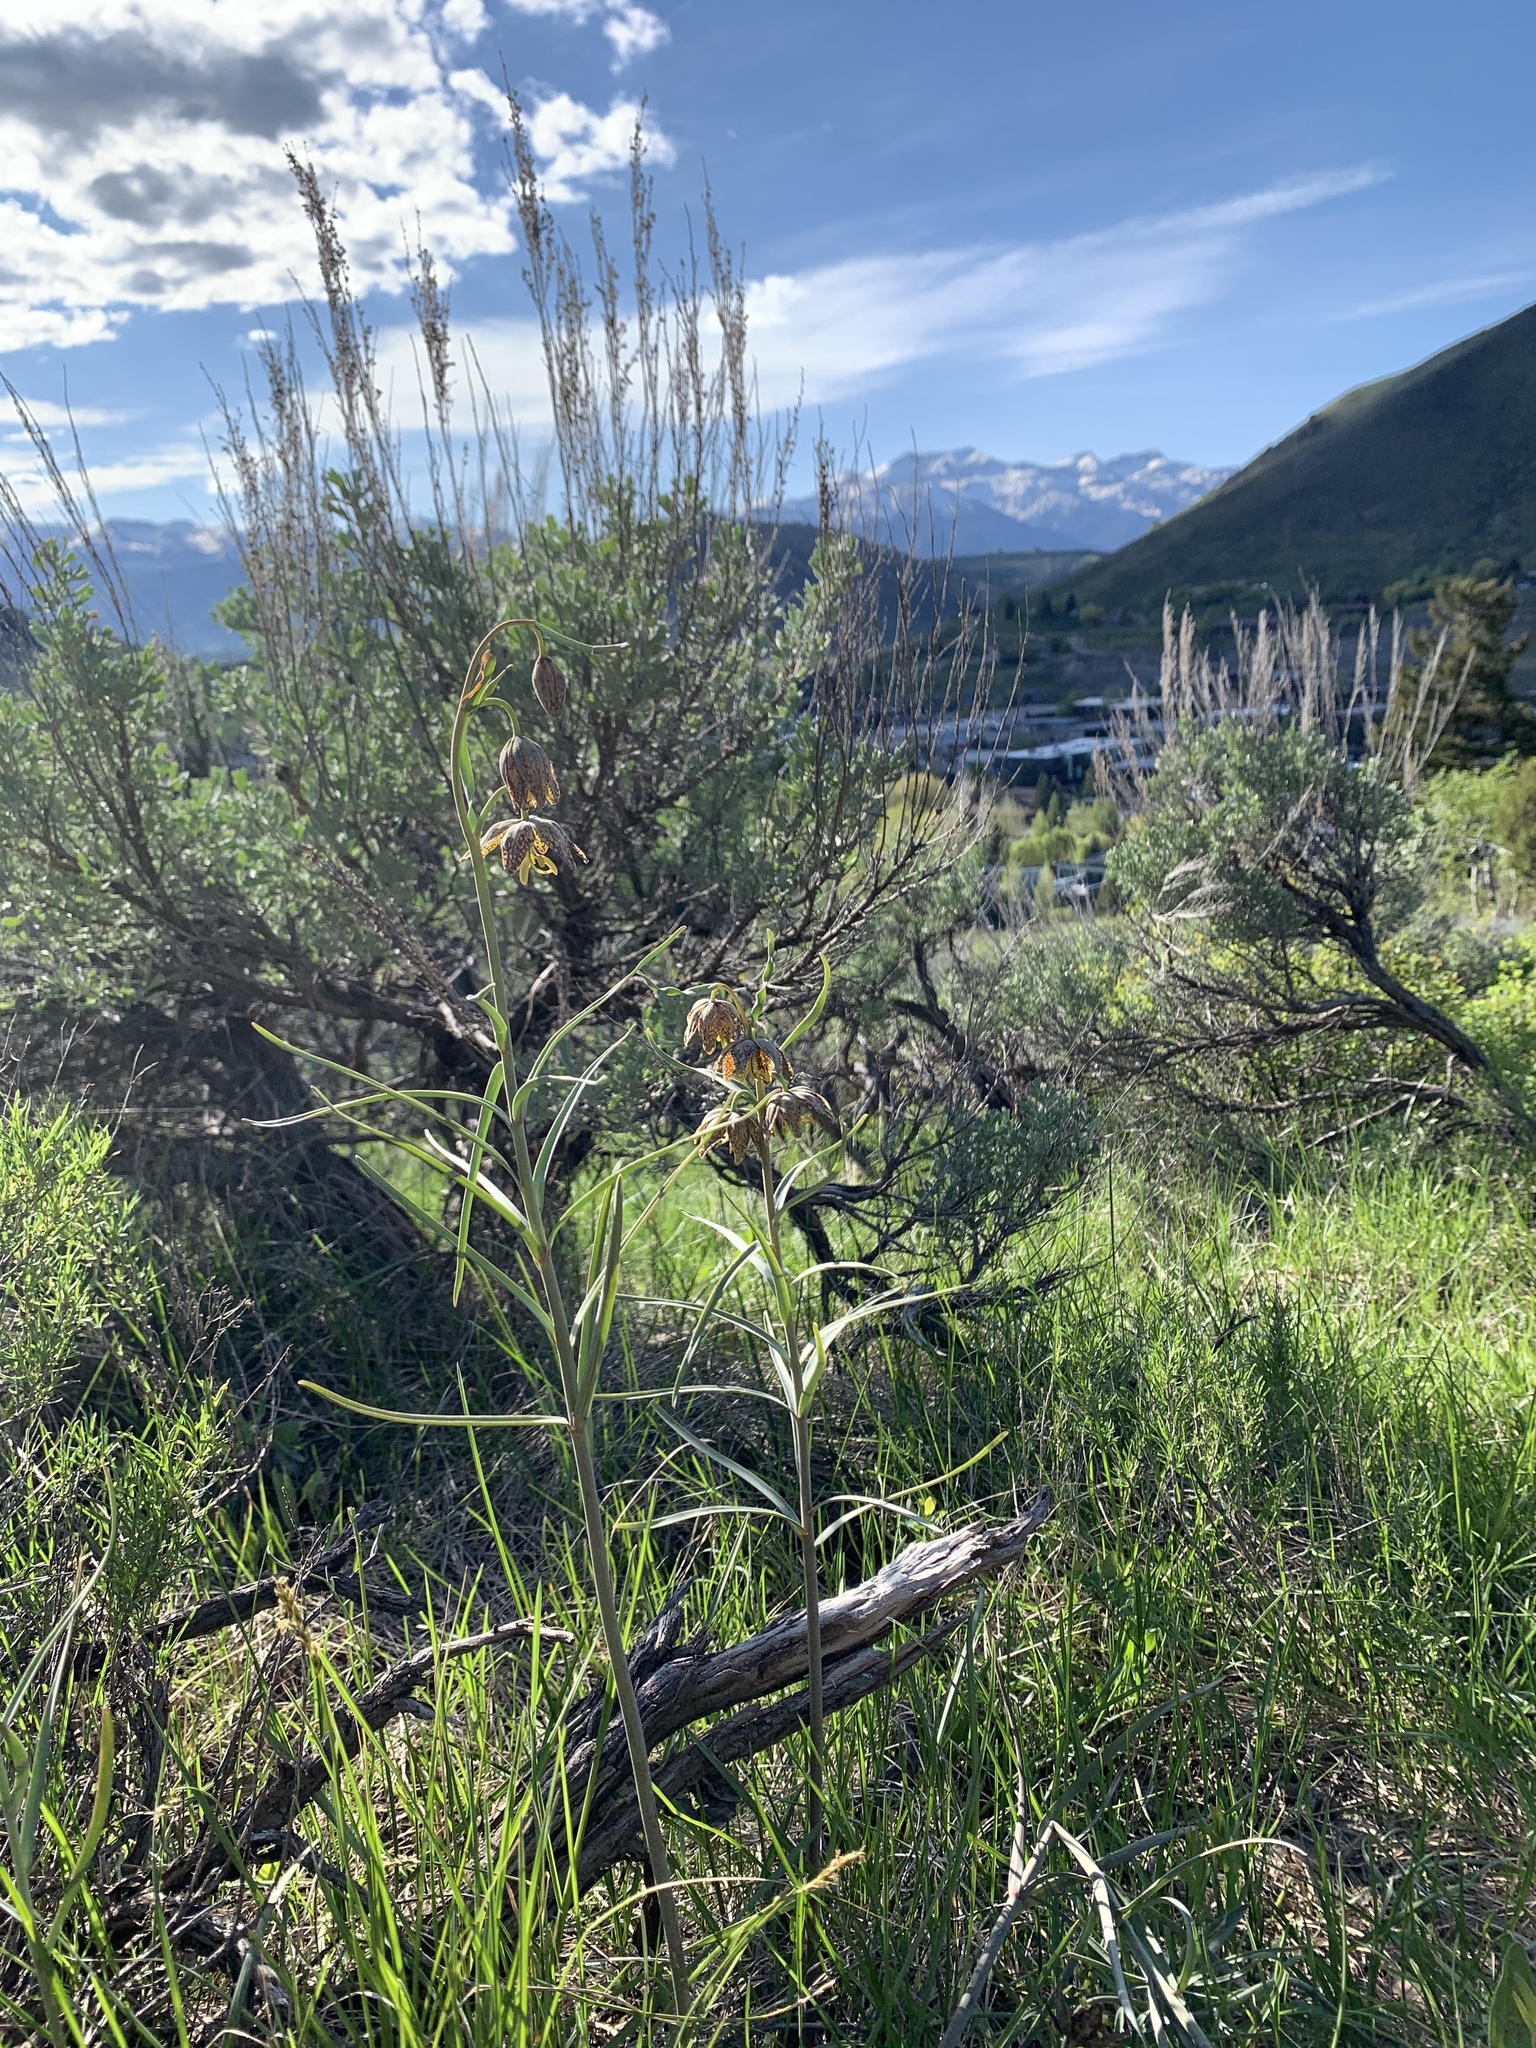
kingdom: Plantae
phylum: Tracheophyta
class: Liliopsida
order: Liliales
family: Liliaceae
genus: Fritillaria
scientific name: Fritillaria atropurpurea
